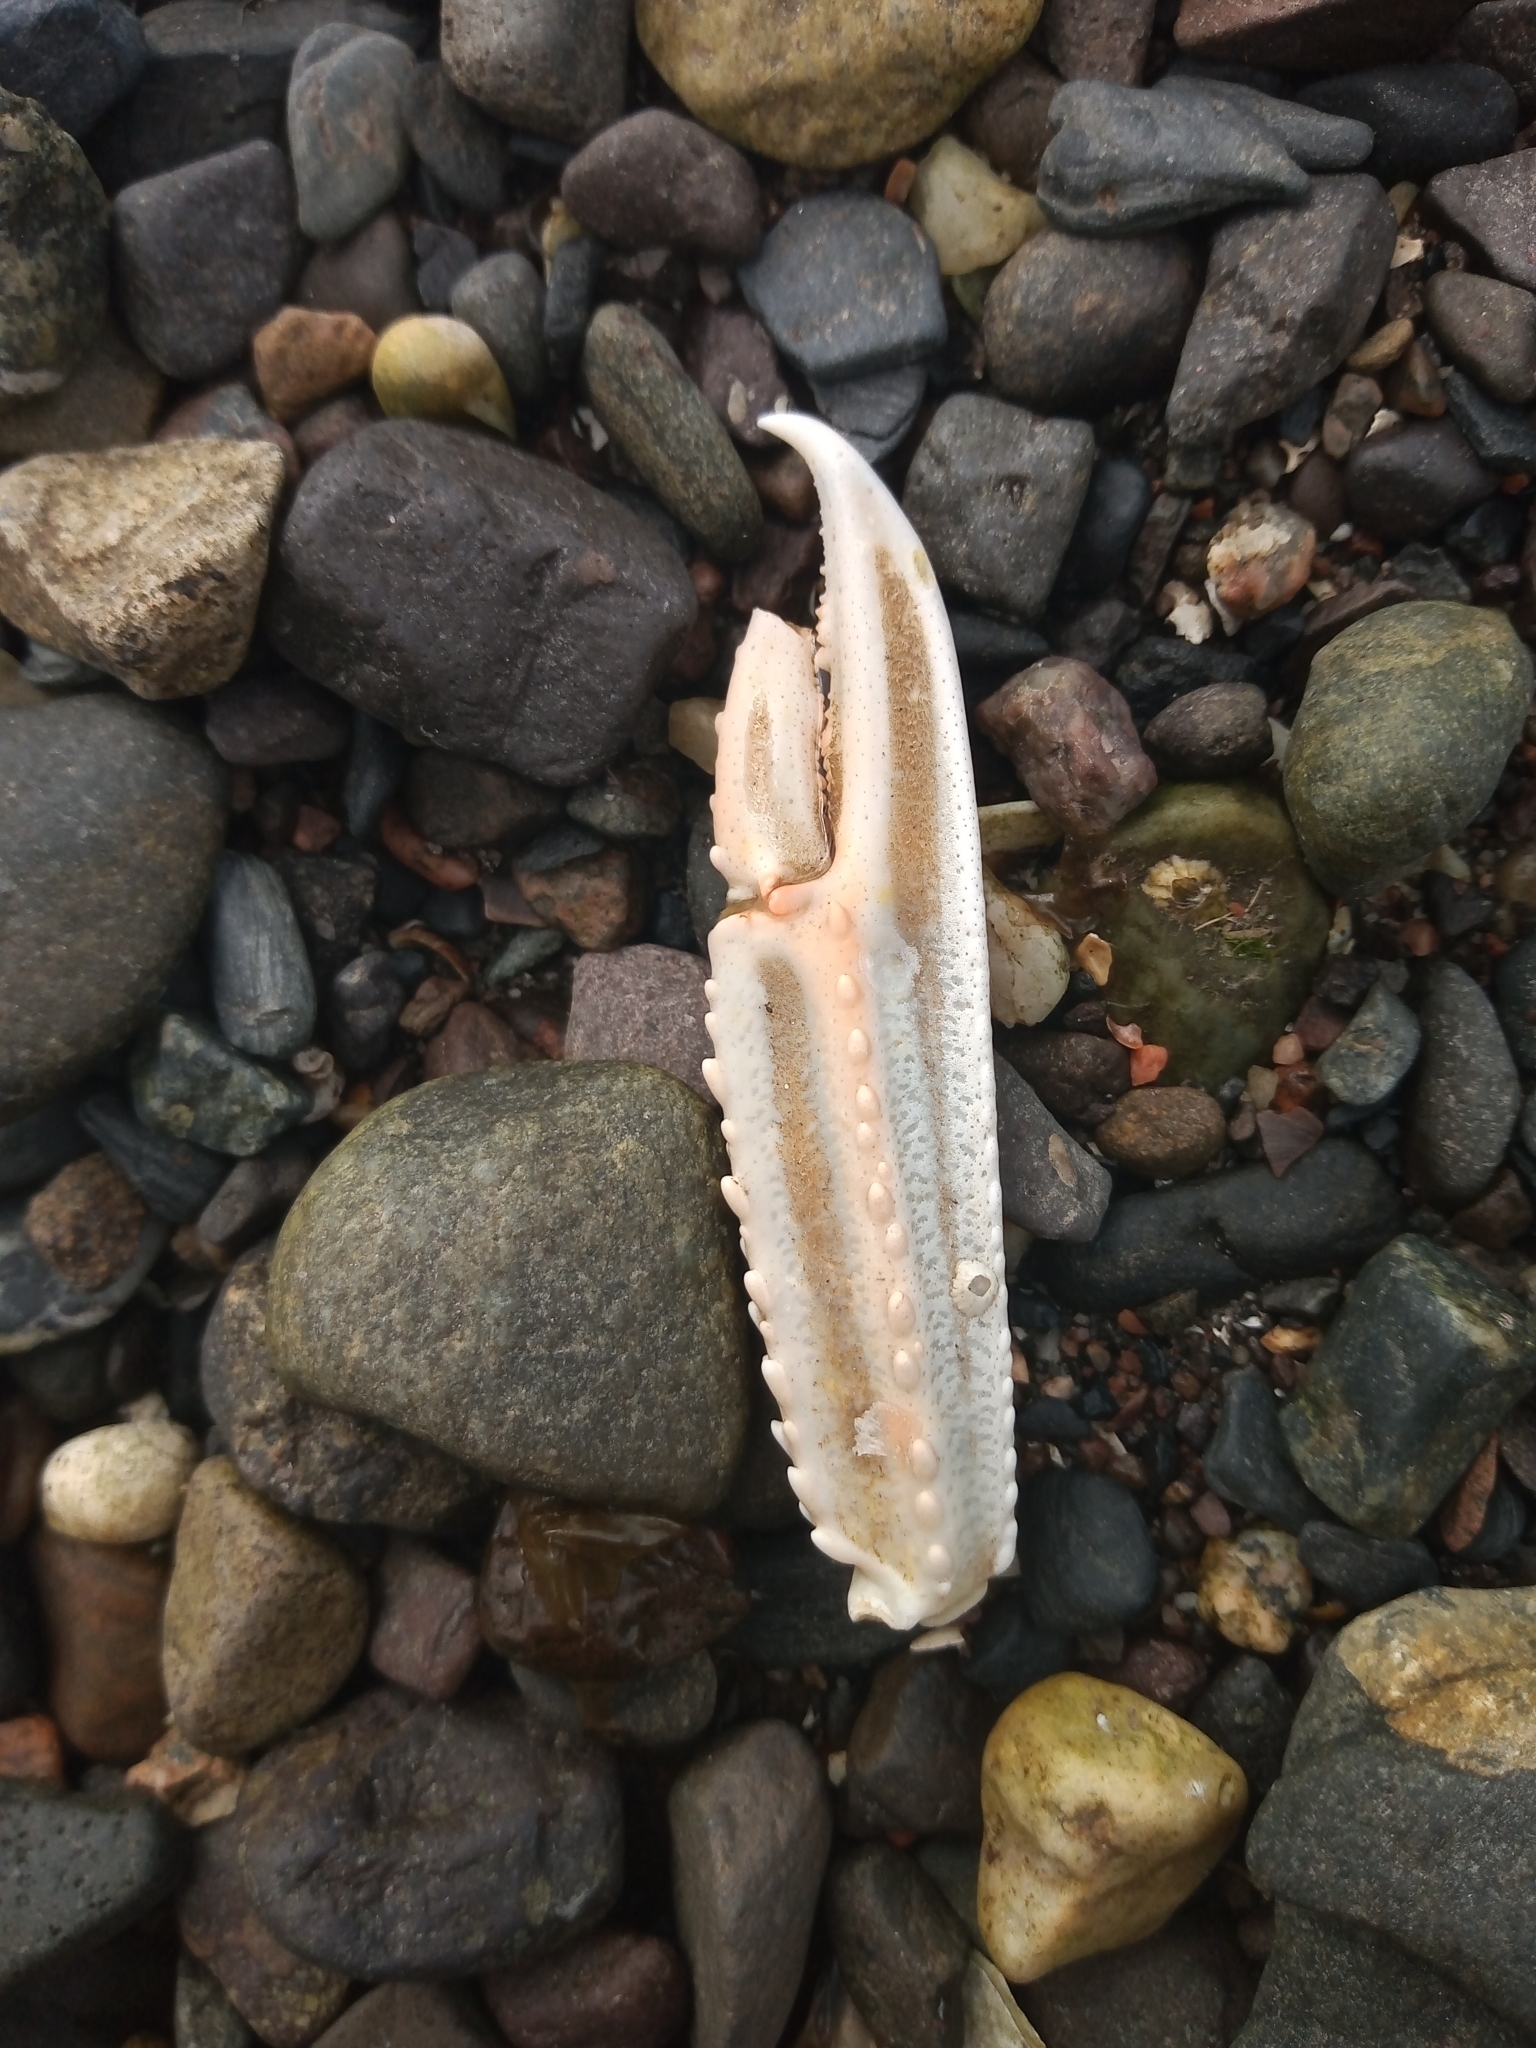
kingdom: Animalia
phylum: Arthropoda
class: Malacostraca
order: Decapoda
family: Nephropidae
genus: Nephrops
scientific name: Nephrops norvegicus
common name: Norway lobster
